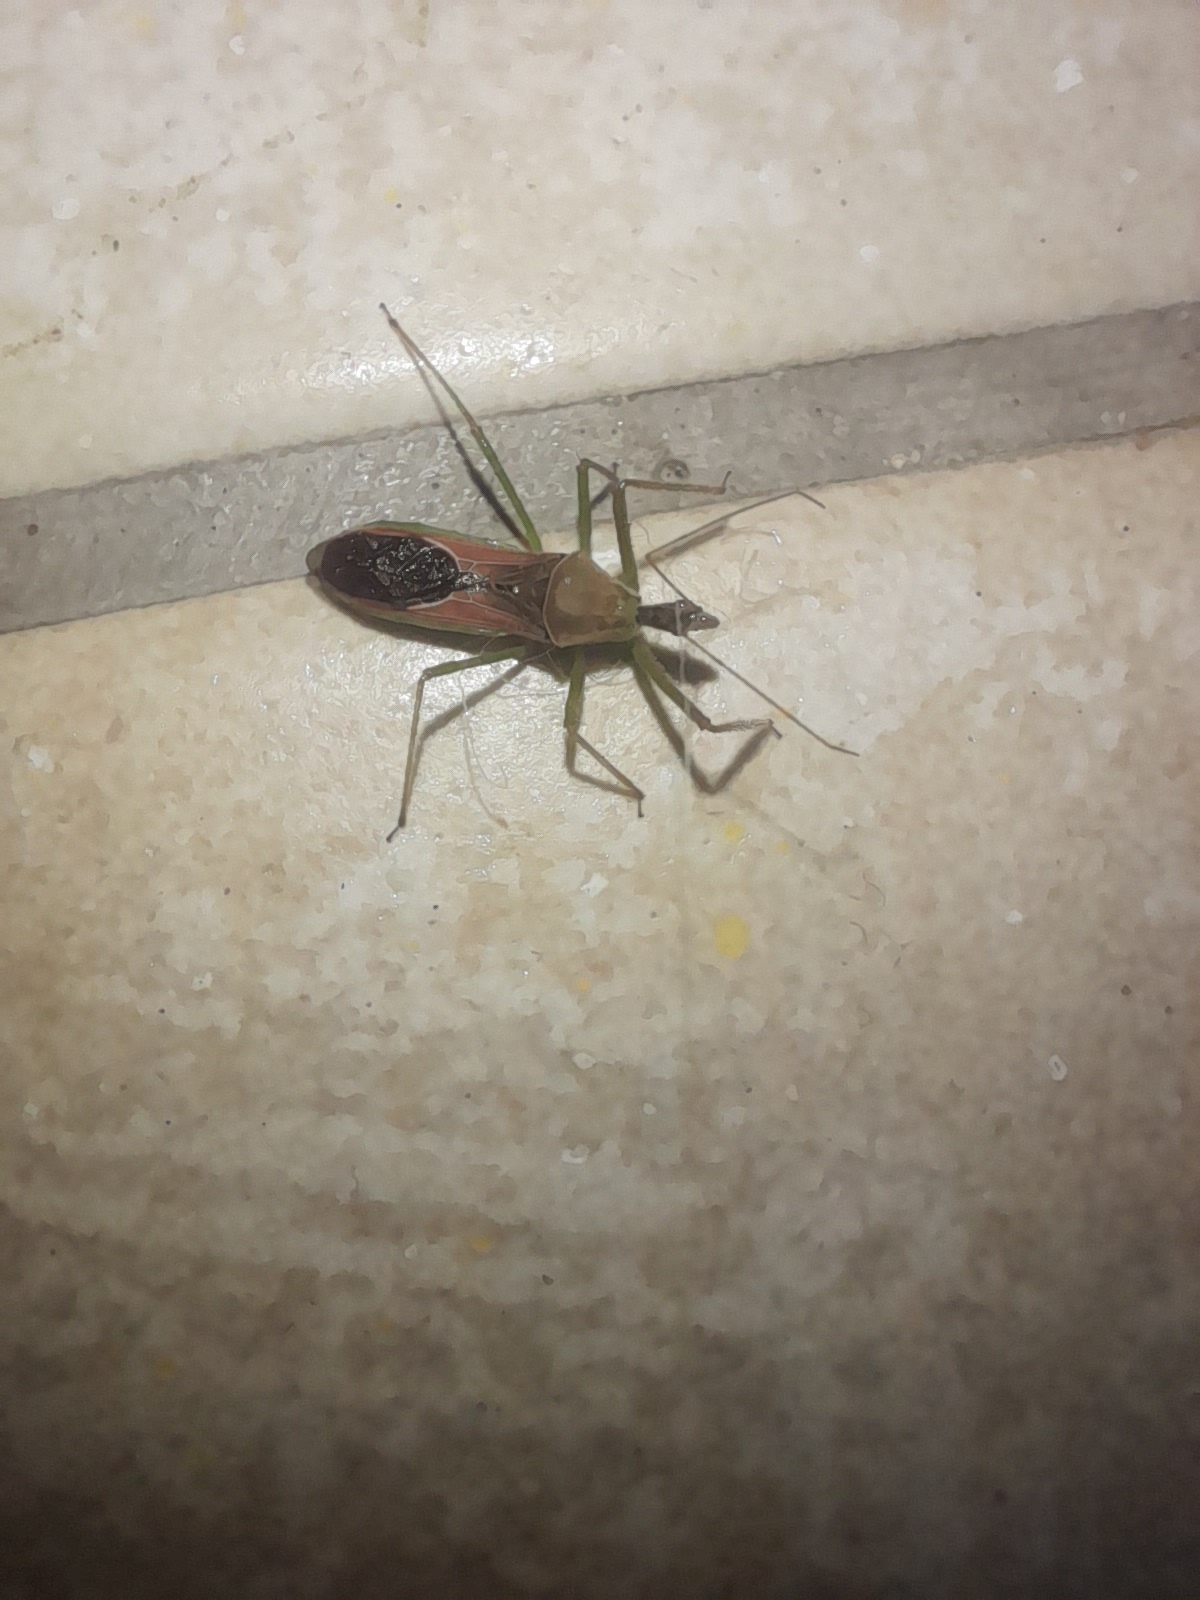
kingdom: Animalia
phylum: Arthropoda
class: Insecta
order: Hemiptera
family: Reduviidae
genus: Zelus
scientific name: Zelus renardii
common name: Assassin bug
